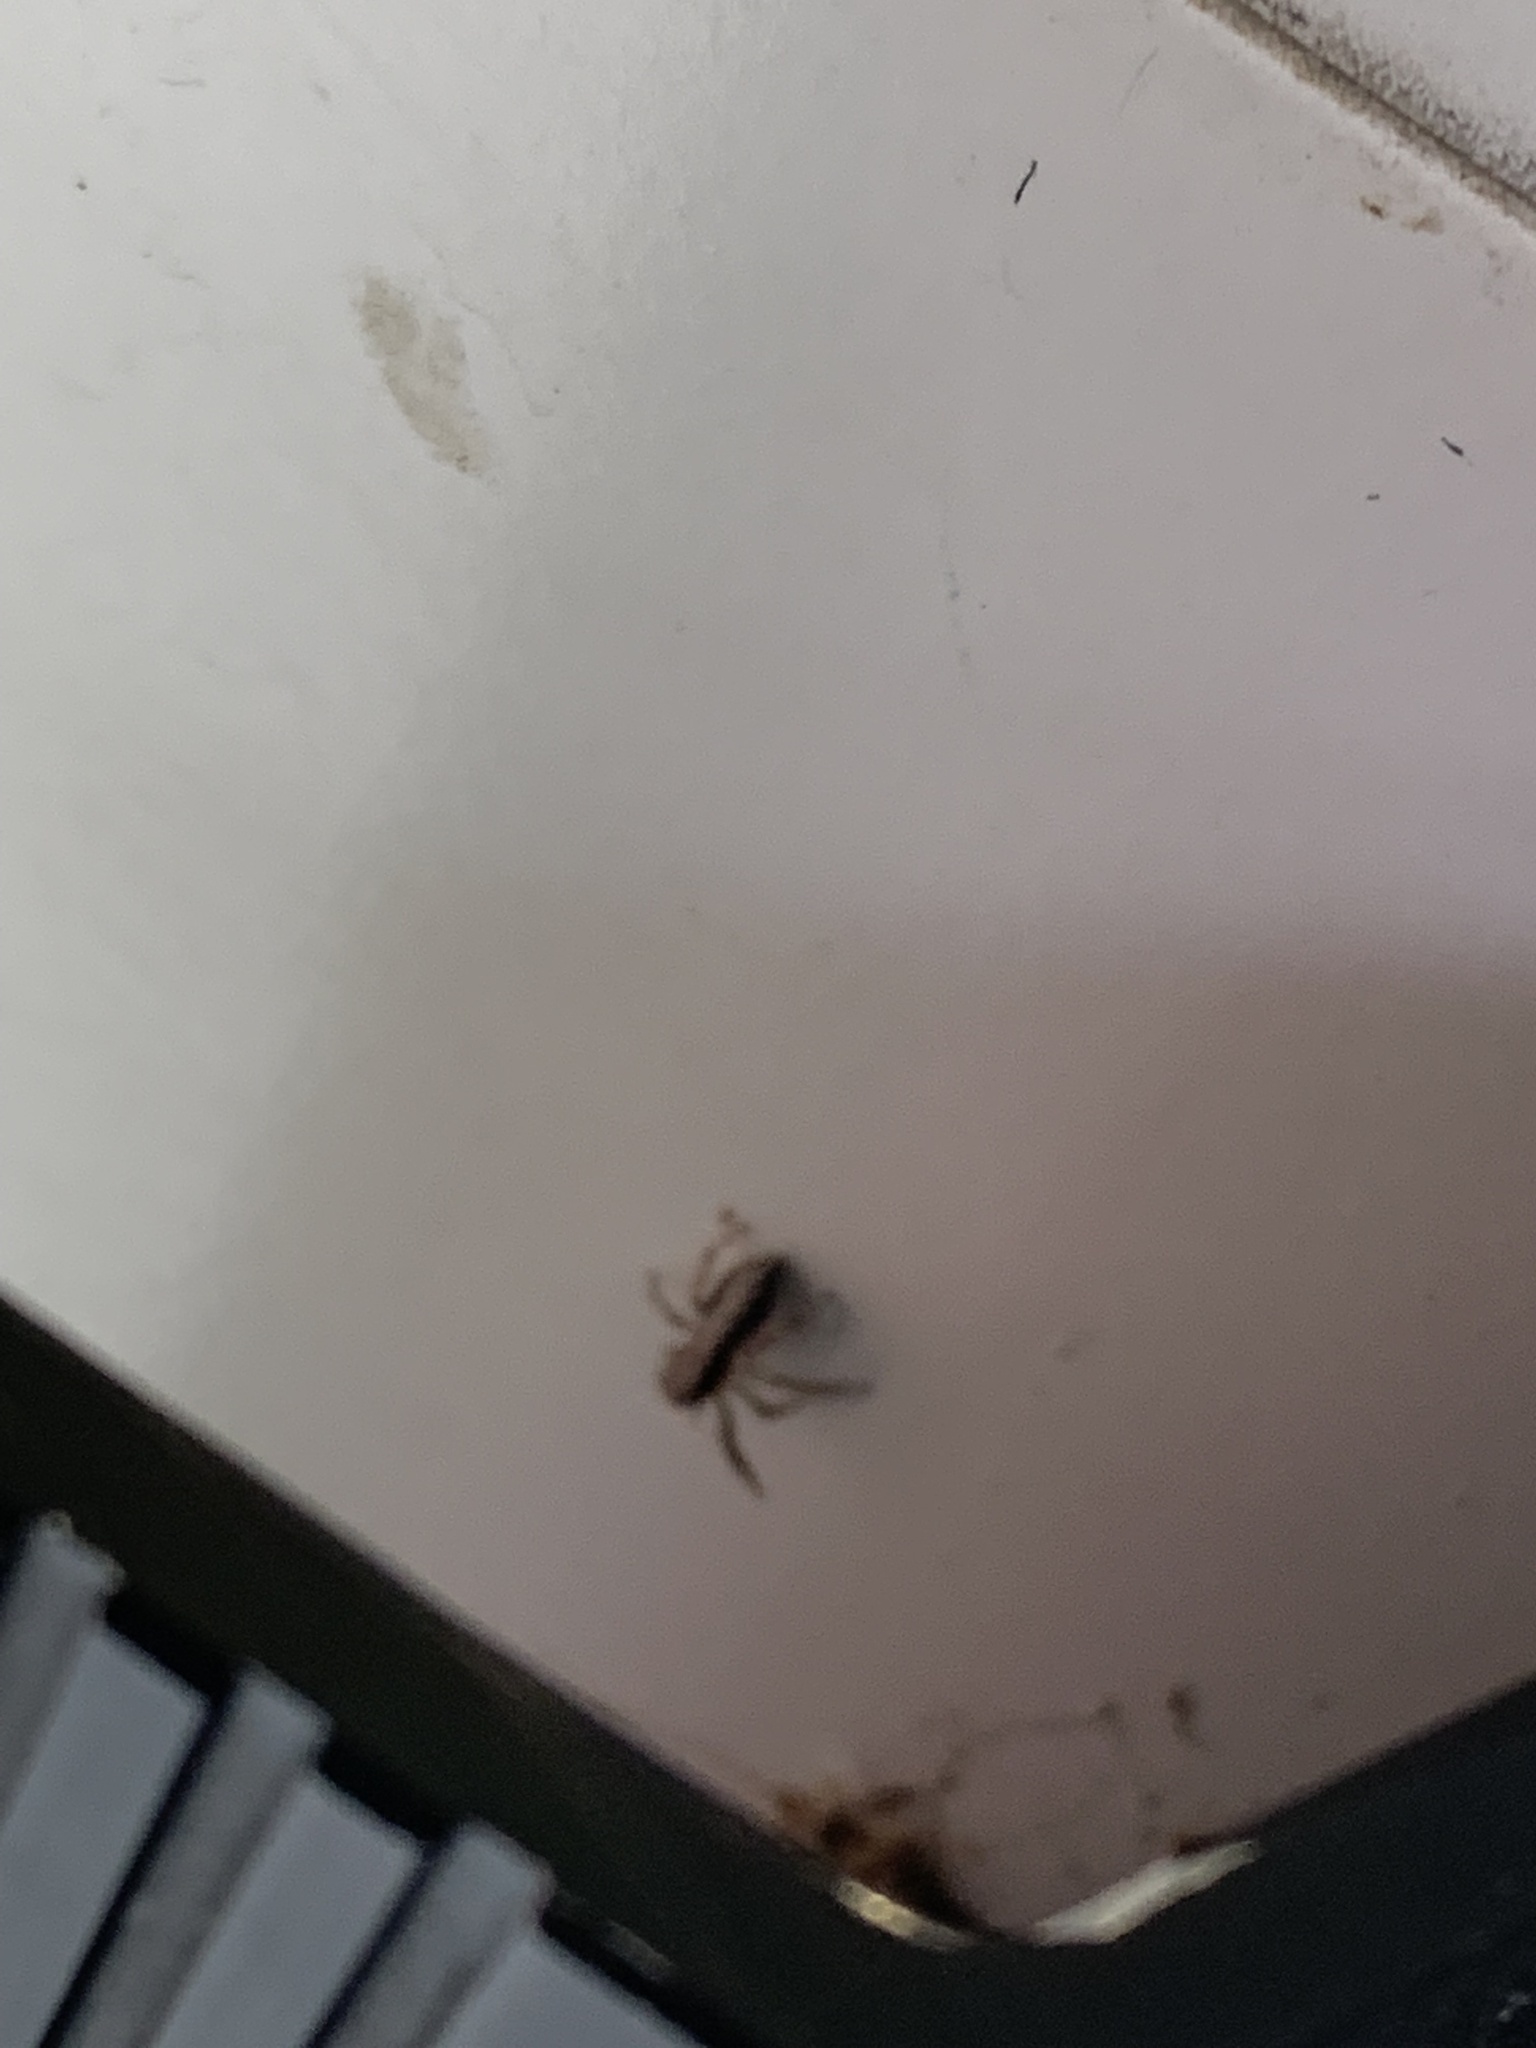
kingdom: Animalia
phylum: Arthropoda
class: Arachnida
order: Araneae
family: Salticidae
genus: Platycryptus
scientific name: Platycryptus californicus
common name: Jumping spiders
